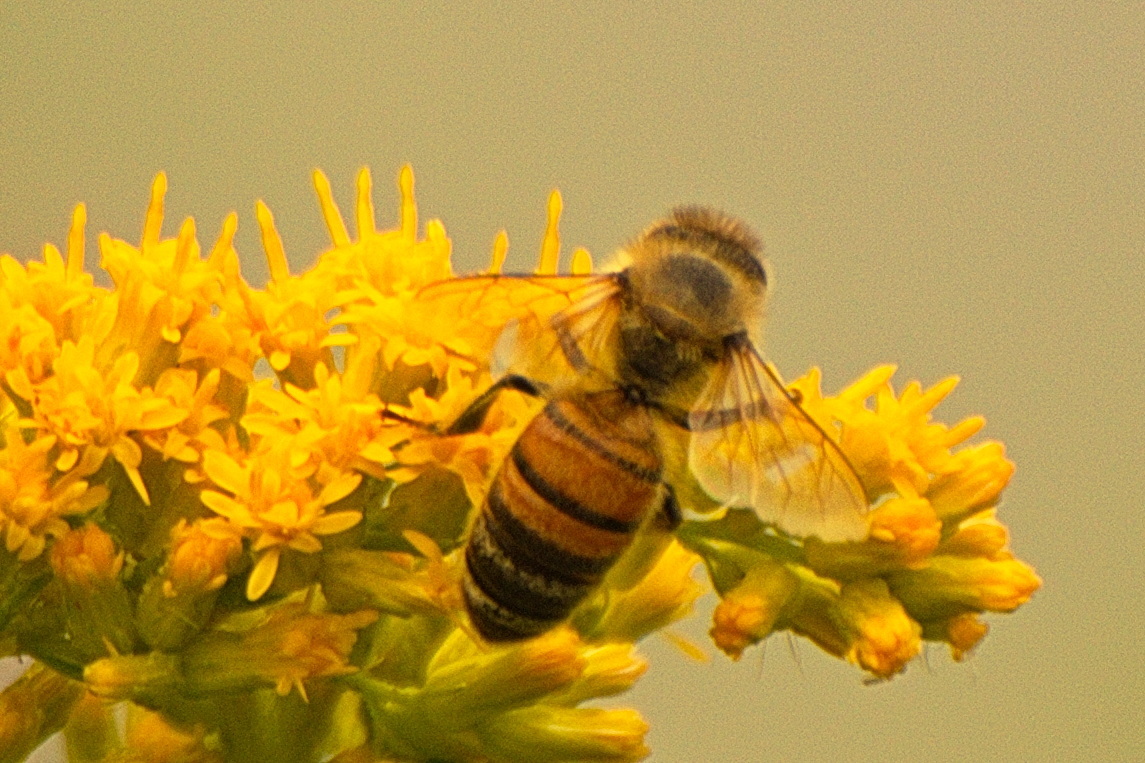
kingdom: Animalia
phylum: Arthropoda
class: Insecta
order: Hymenoptera
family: Apidae
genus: Apis
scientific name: Apis mellifera
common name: Honey bee
